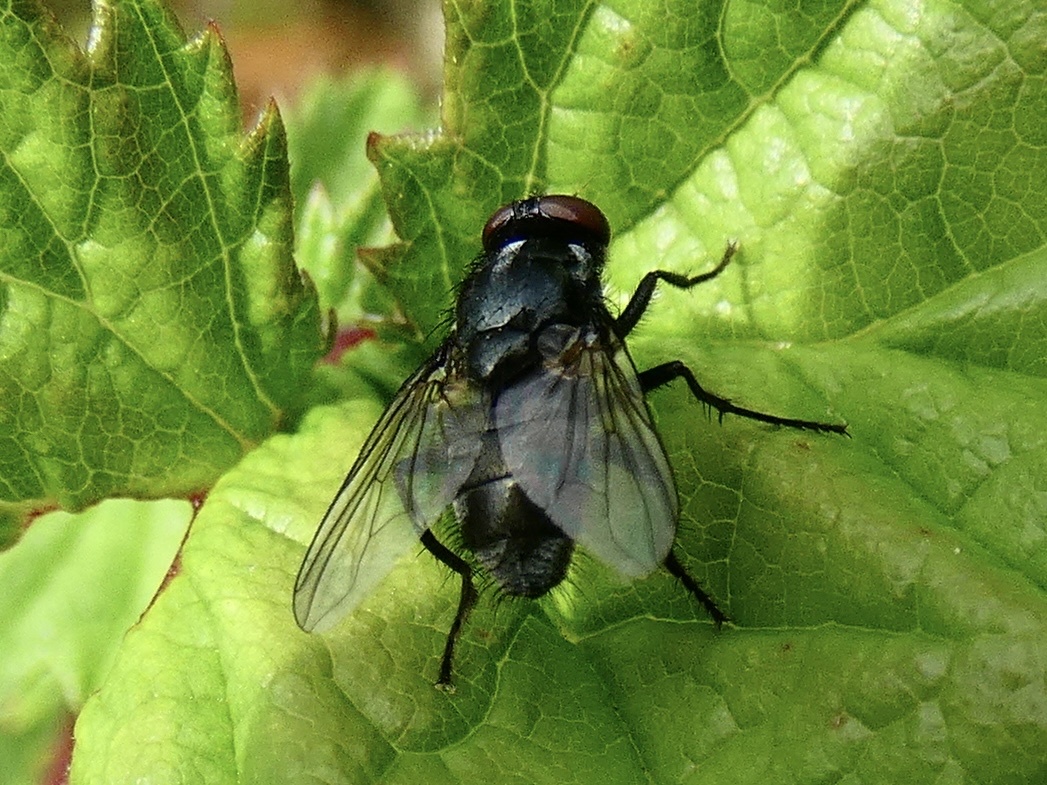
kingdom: Animalia
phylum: Arthropoda
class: Insecta
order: Diptera
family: Muscidae
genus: Morellia
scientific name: Morellia aenescens
